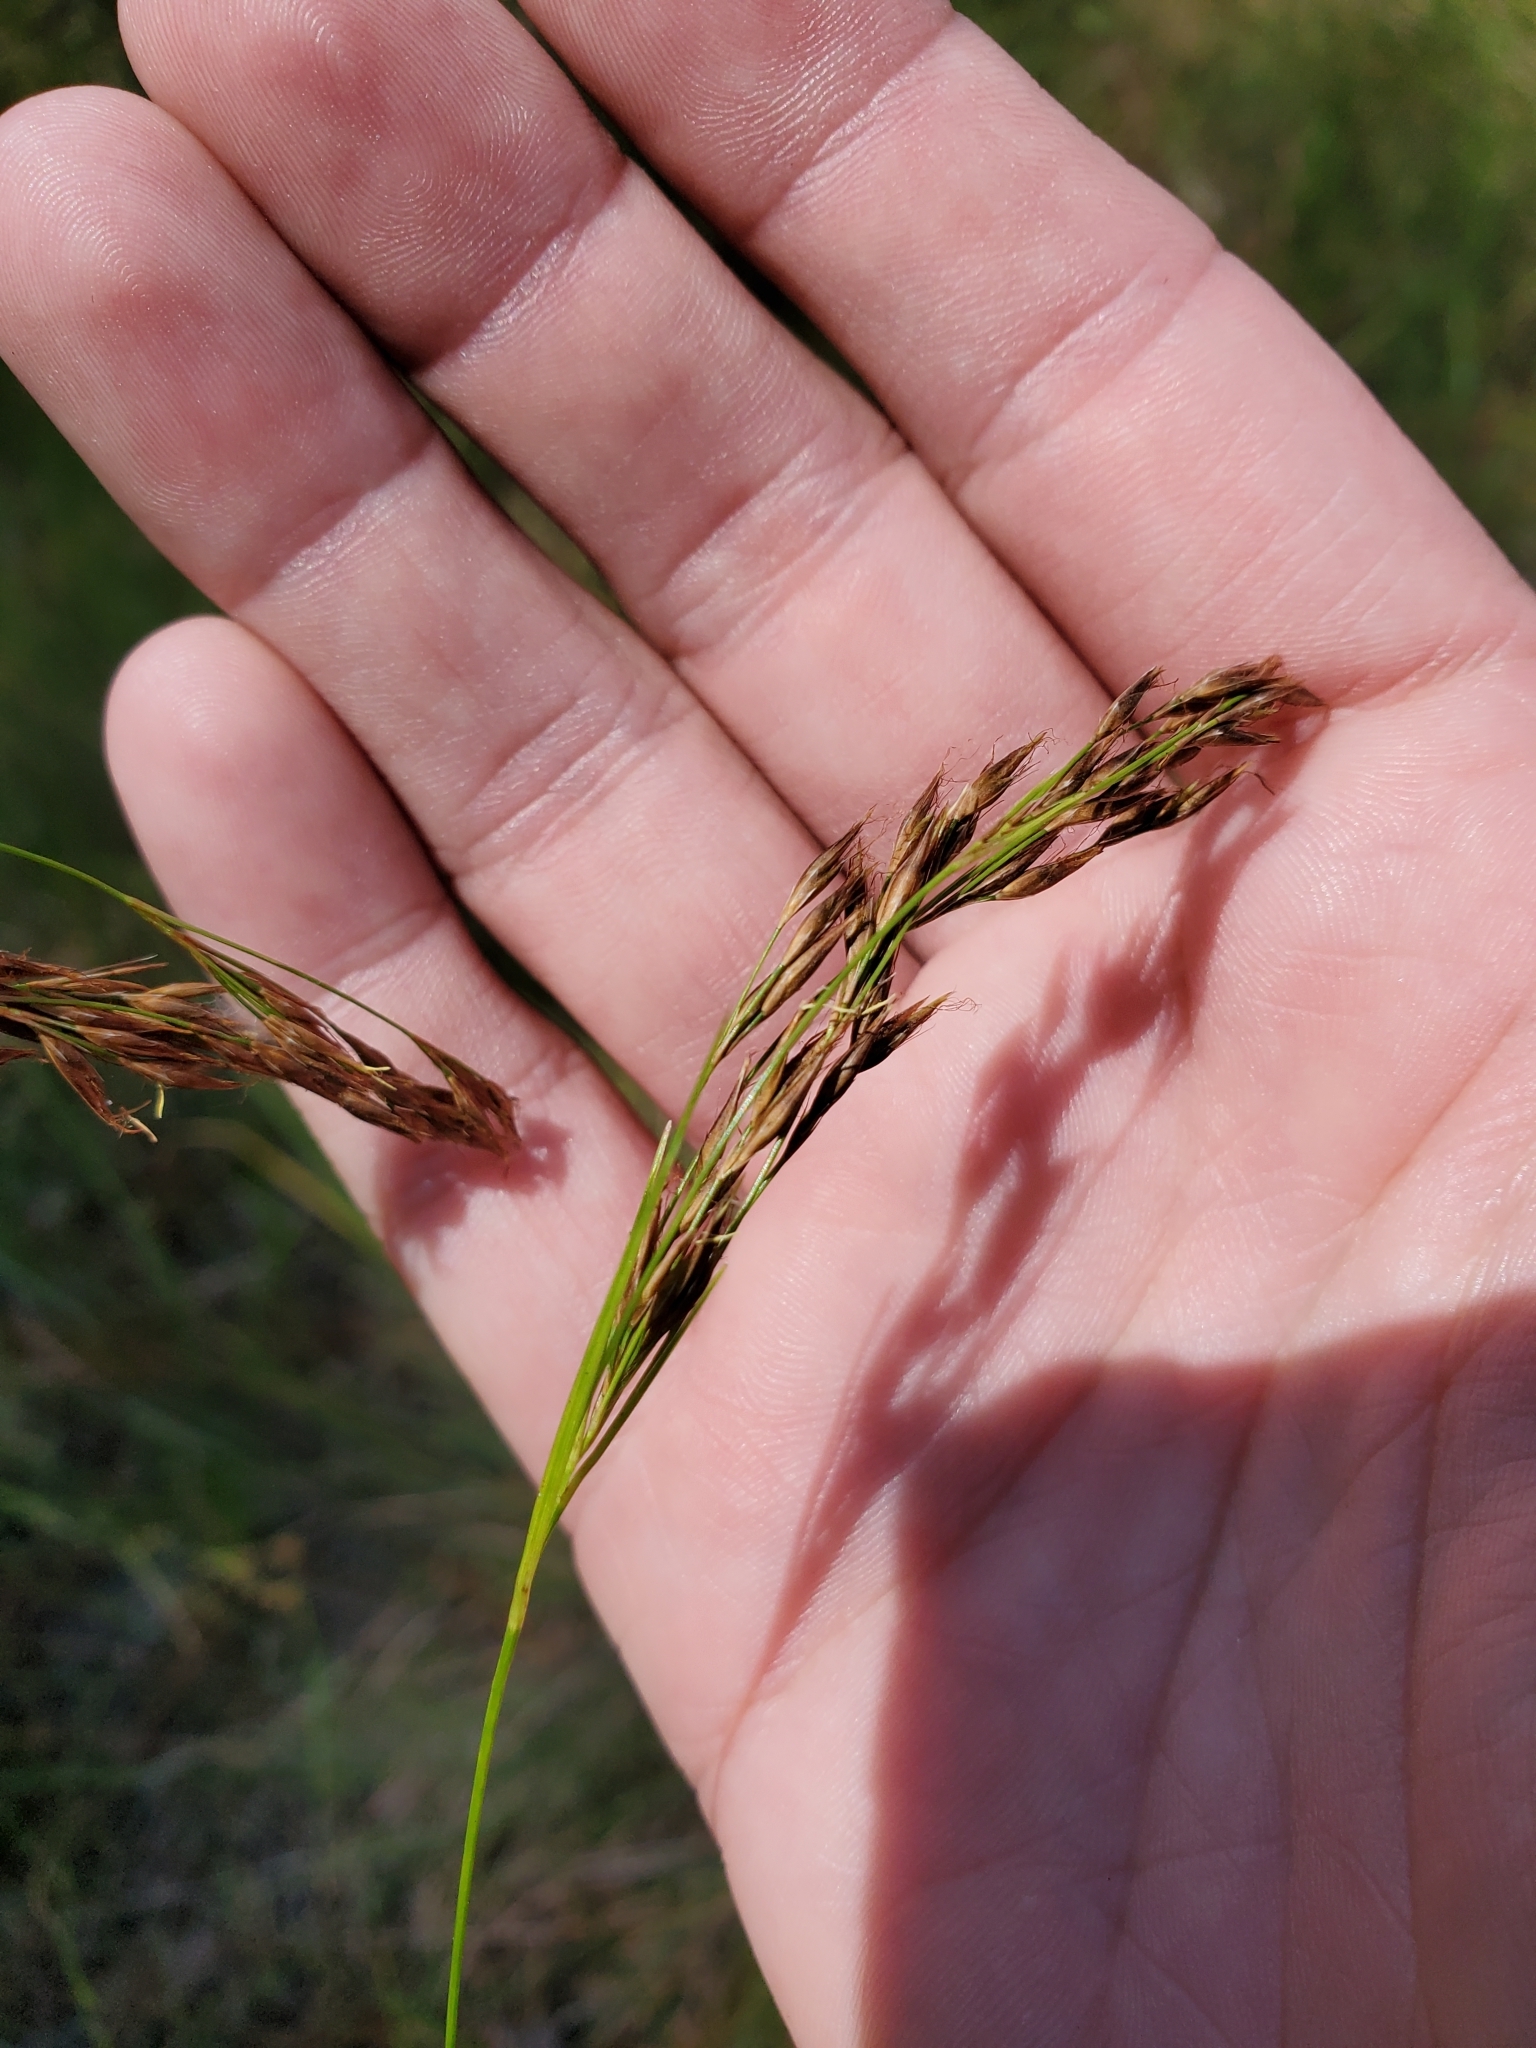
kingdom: Plantae
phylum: Tracheophyta
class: Liliopsida
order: Poales
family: Cyperaceae
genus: Rhynchospora
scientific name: Rhynchospora inexpansa
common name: Nodding beaksedge
